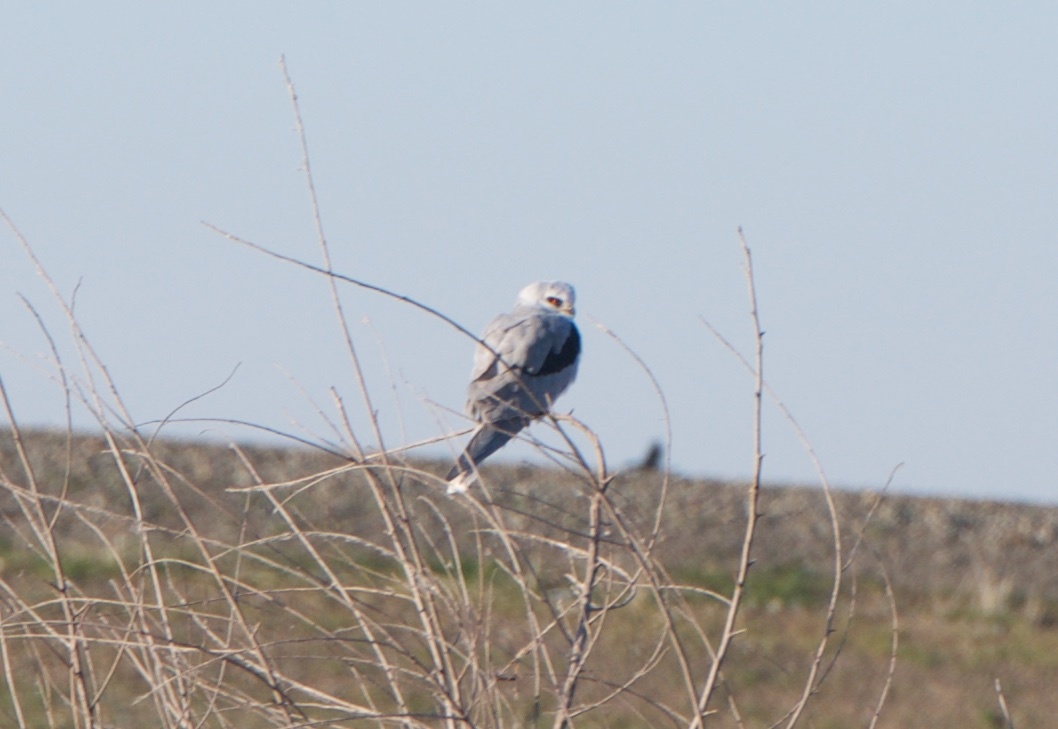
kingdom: Animalia
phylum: Chordata
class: Aves
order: Accipitriformes
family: Accipitridae
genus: Elanus
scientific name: Elanus leucurus
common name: White-tailed kite
